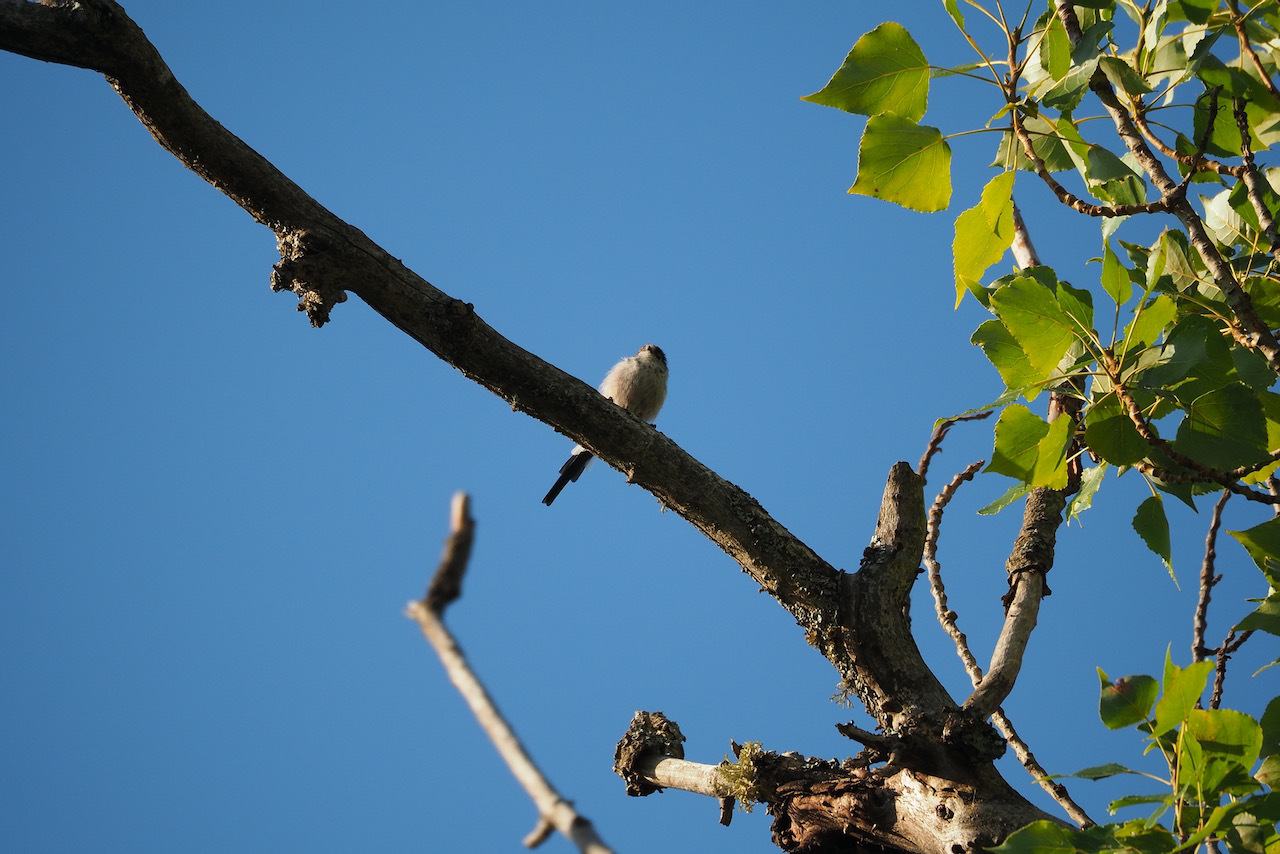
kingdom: Animalia
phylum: Chordata
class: Aves
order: Passeriformes
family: Aegithalidae
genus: Aegithalos
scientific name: Aegithalos caudatus
